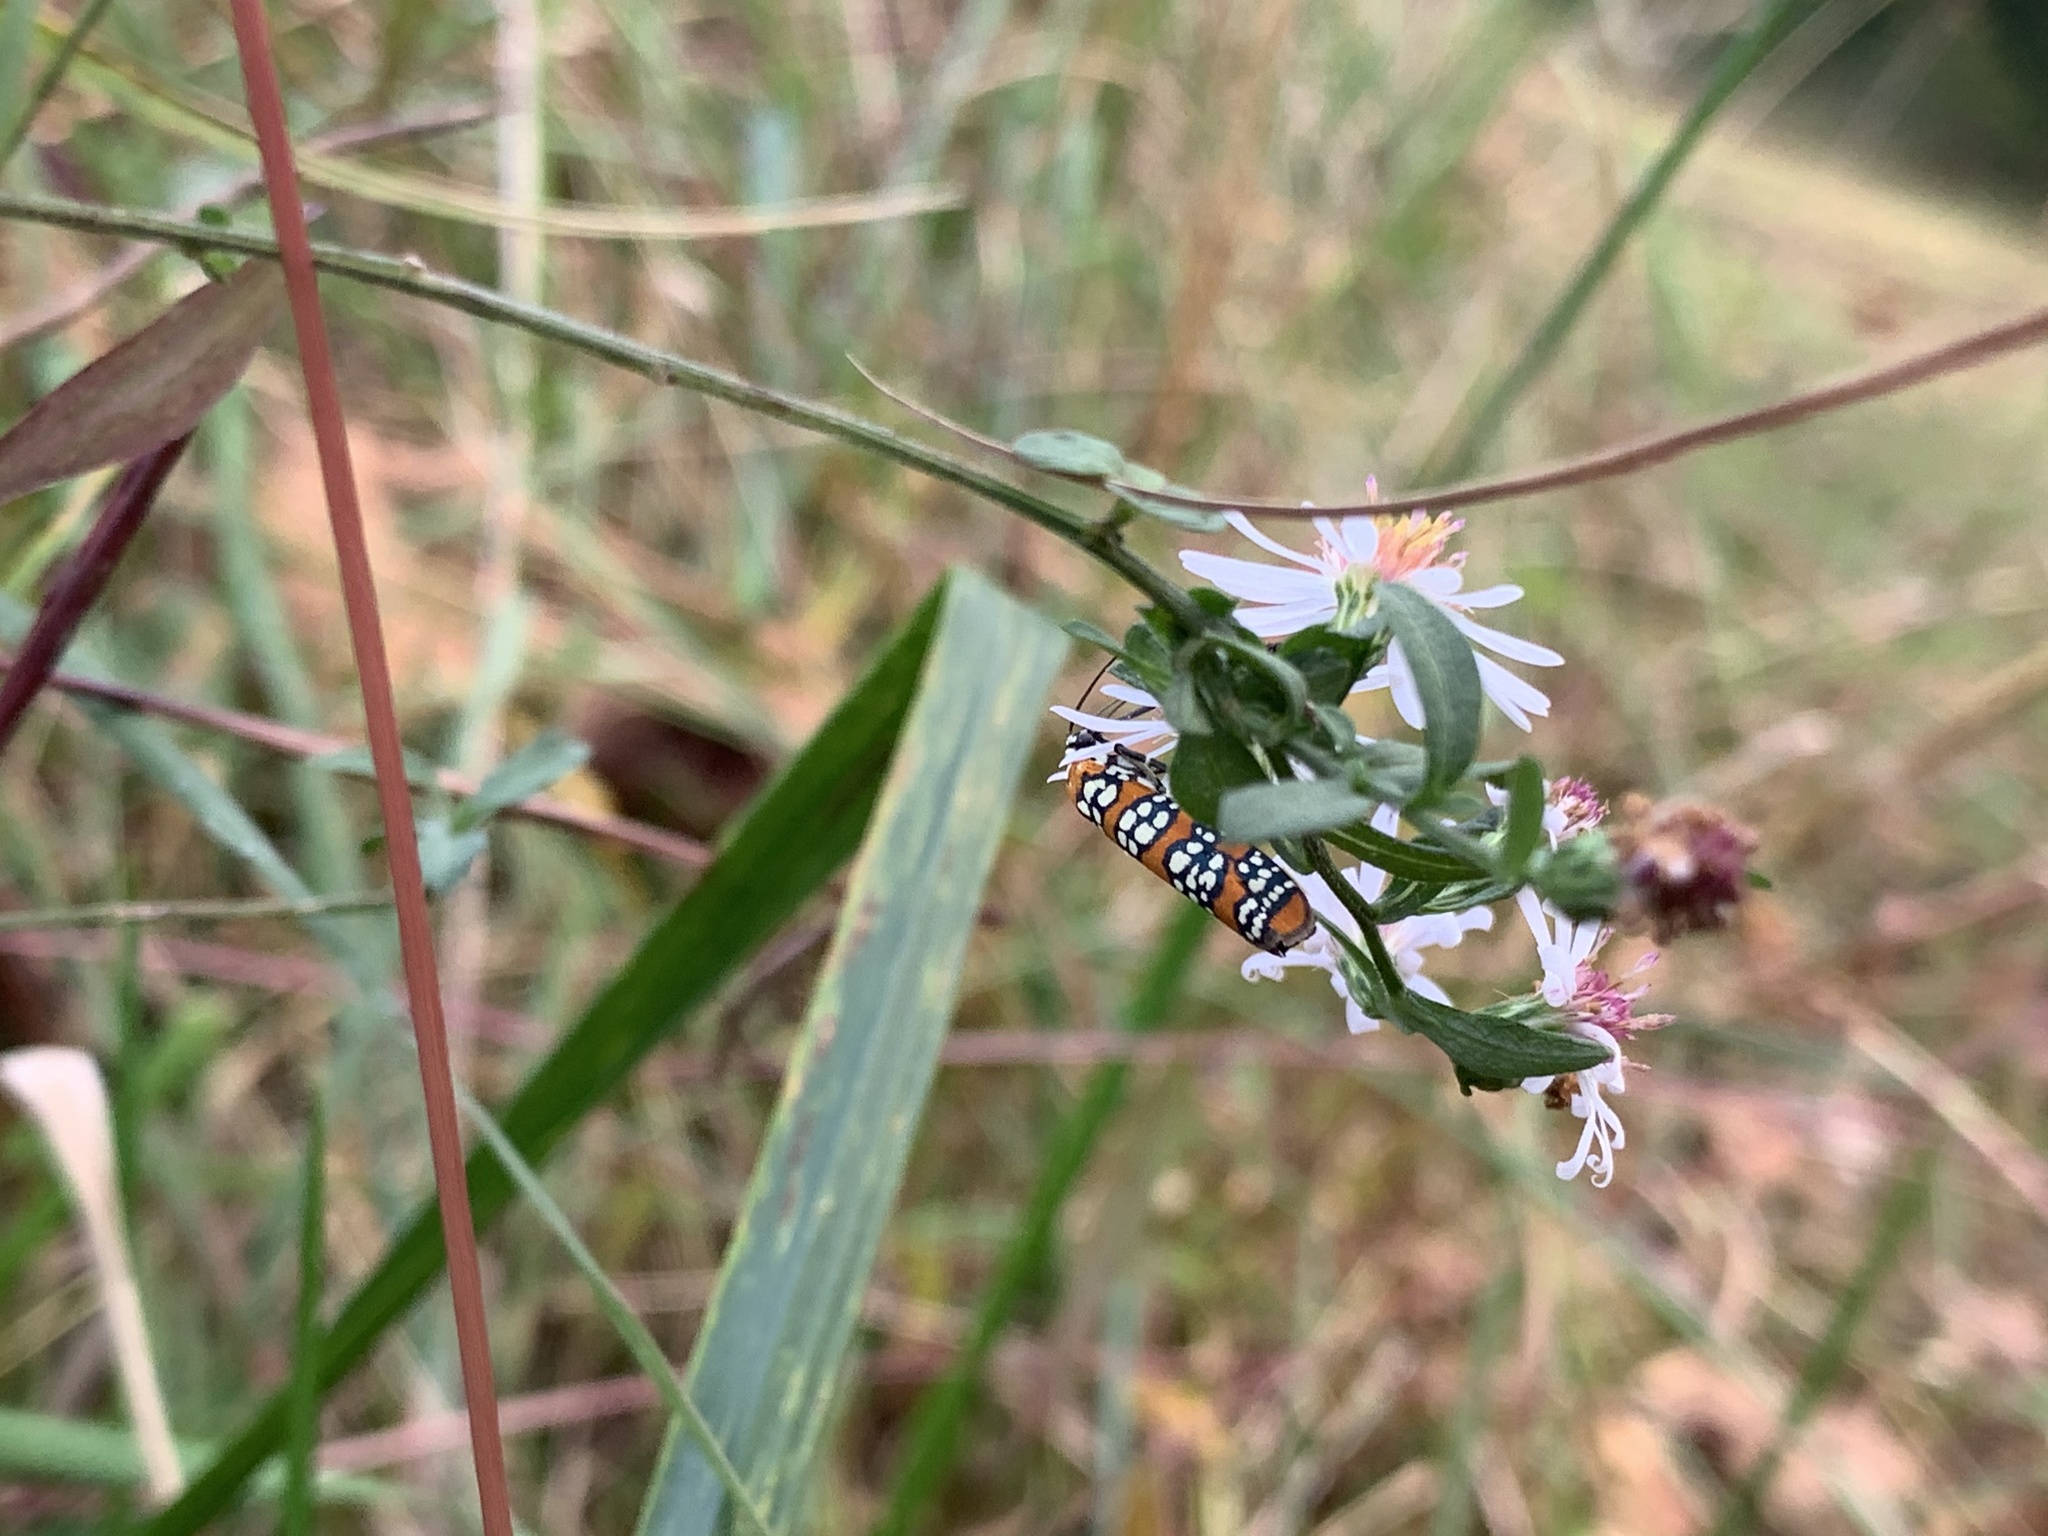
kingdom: Animalia
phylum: Arthropoda
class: Insecta
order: Lepidoptera
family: Attevidae
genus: Atteva
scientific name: Atteva punctella
